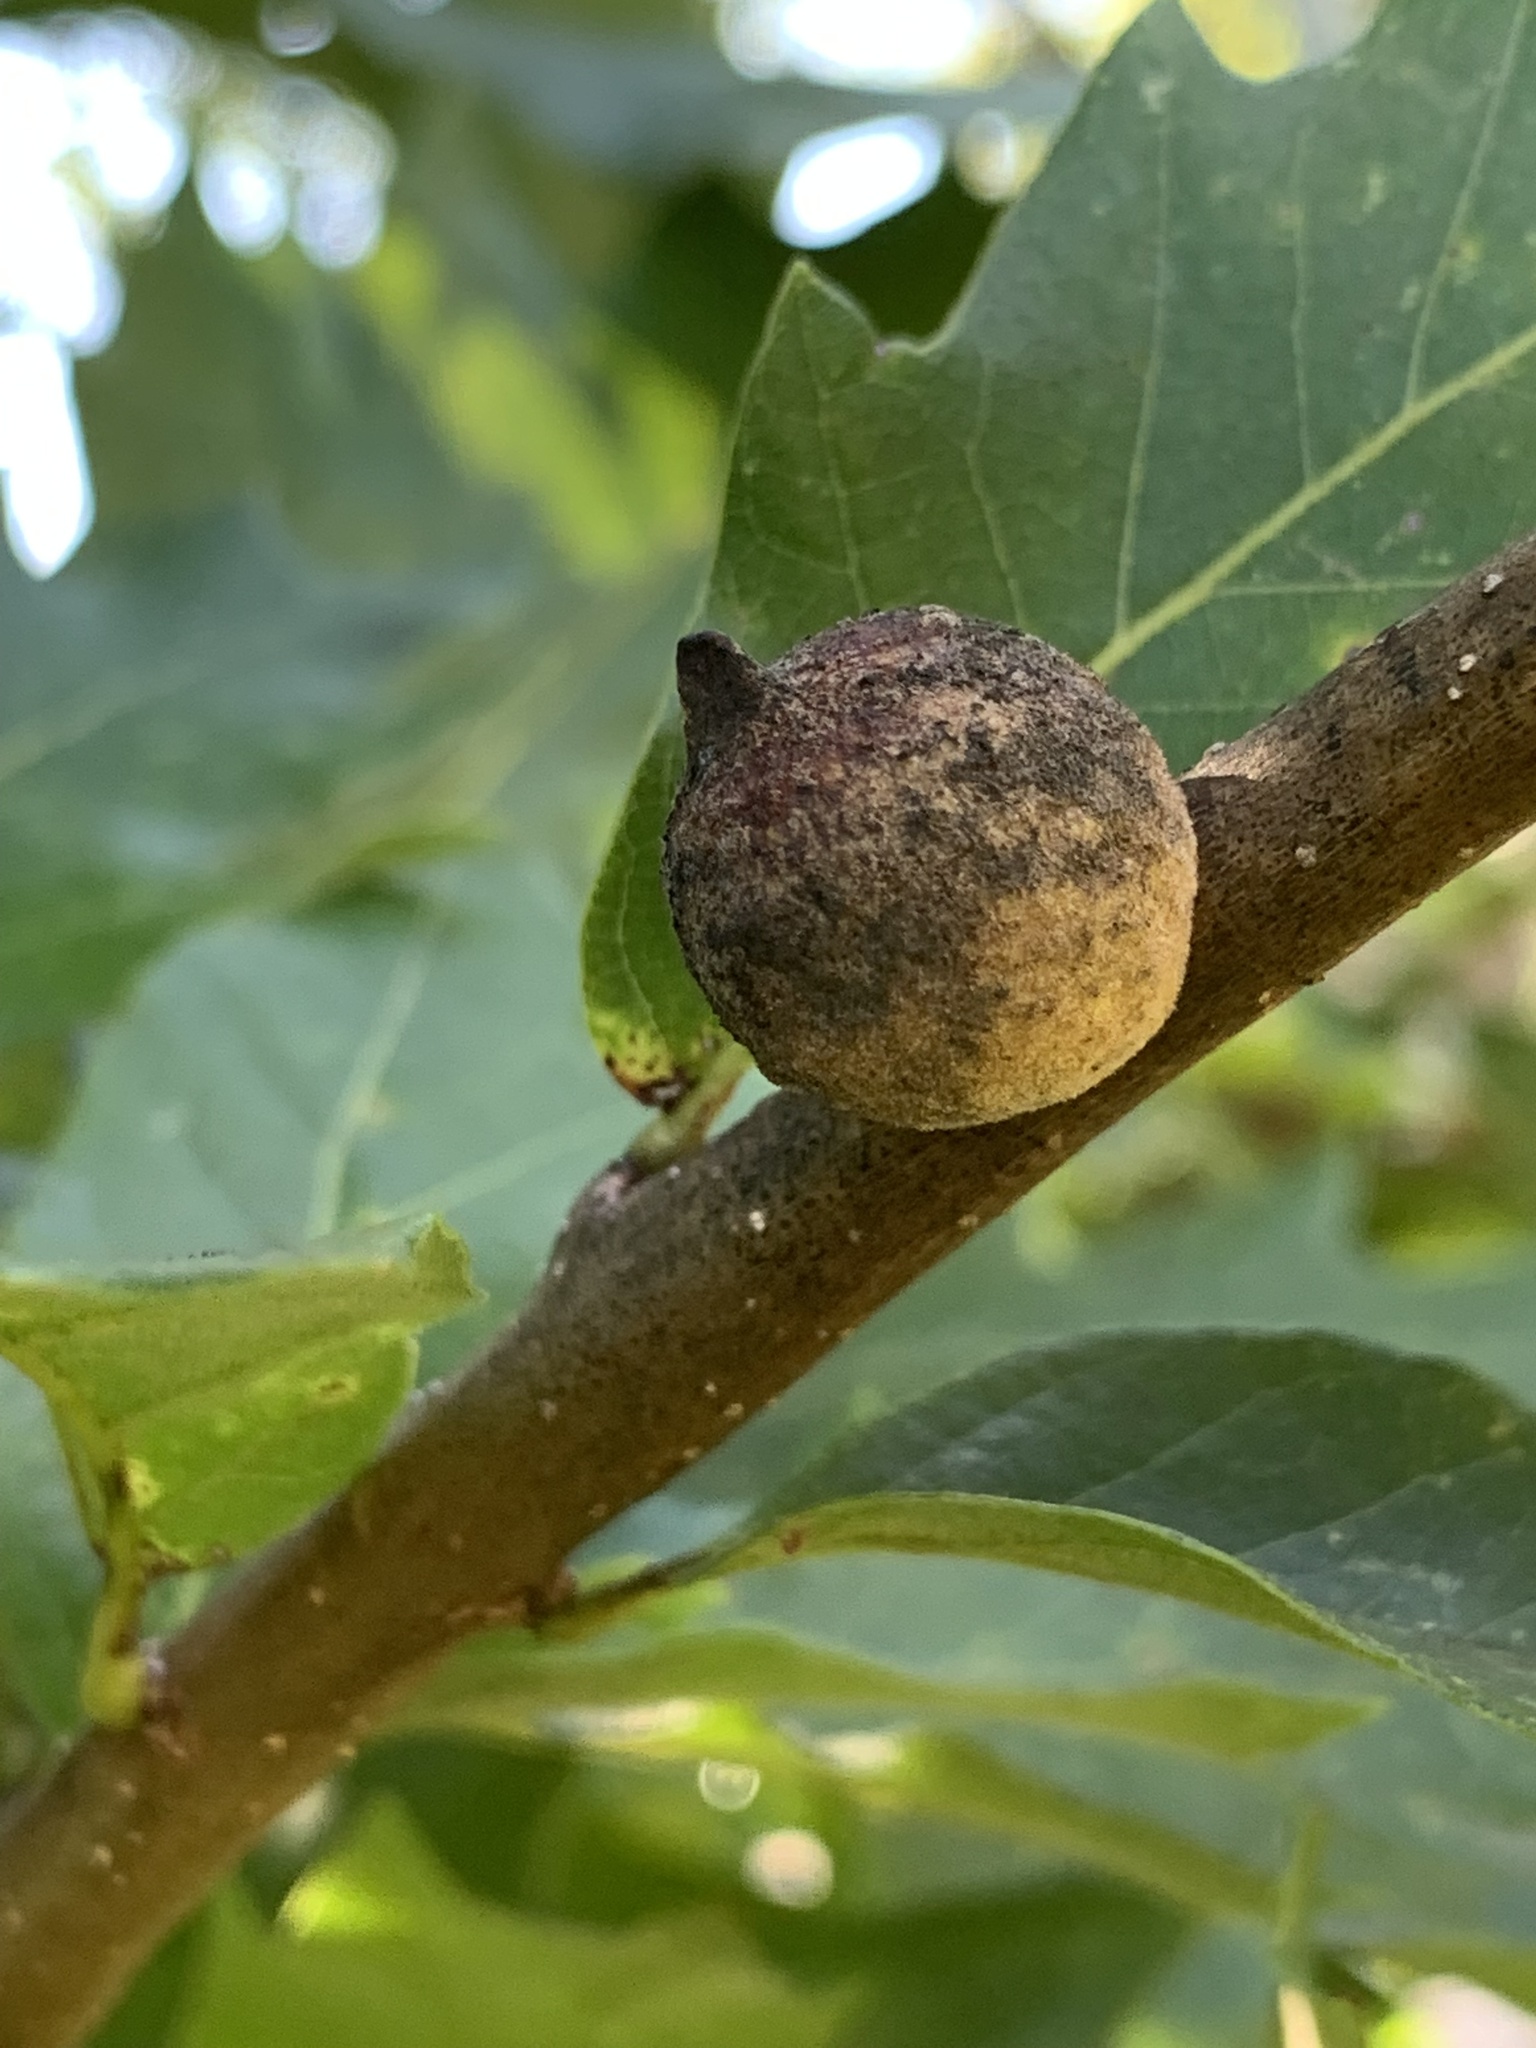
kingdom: Animalia
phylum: Arthropoda
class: Insecta
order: Hymenoptera
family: Cynipidae
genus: Disholcaspis
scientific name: Disholcaspis
